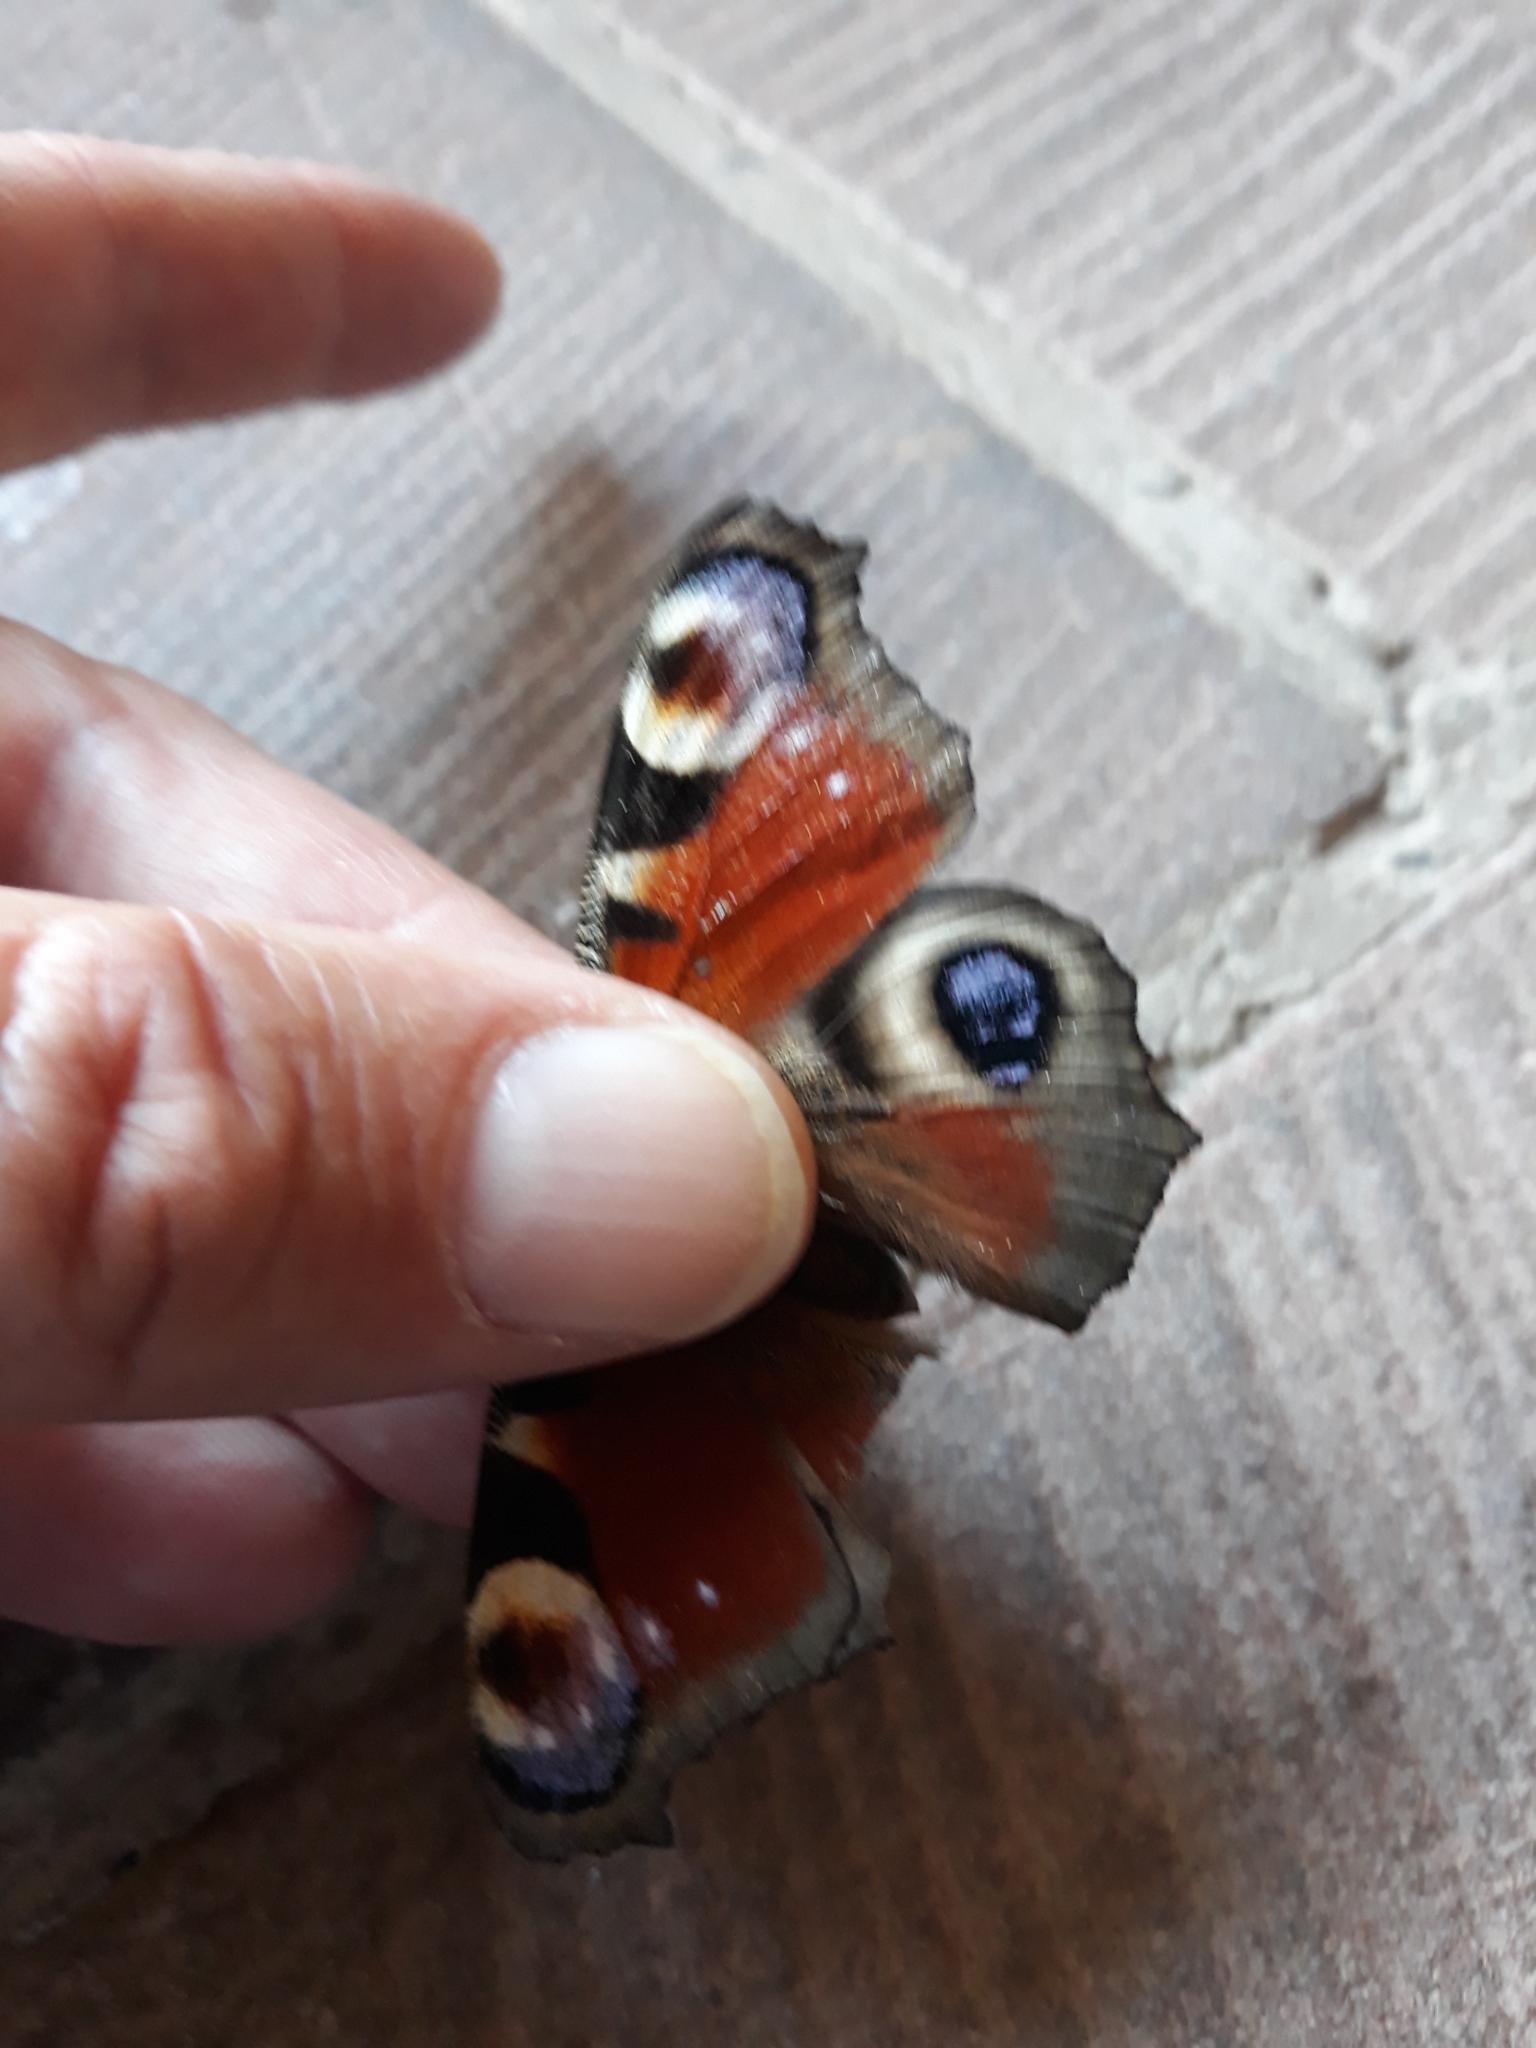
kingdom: Animalia
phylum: Arthropoda
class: Insecta
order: Lepidoptera
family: Nymphalidae
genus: Aglais
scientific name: Aglais io
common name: Peacock
